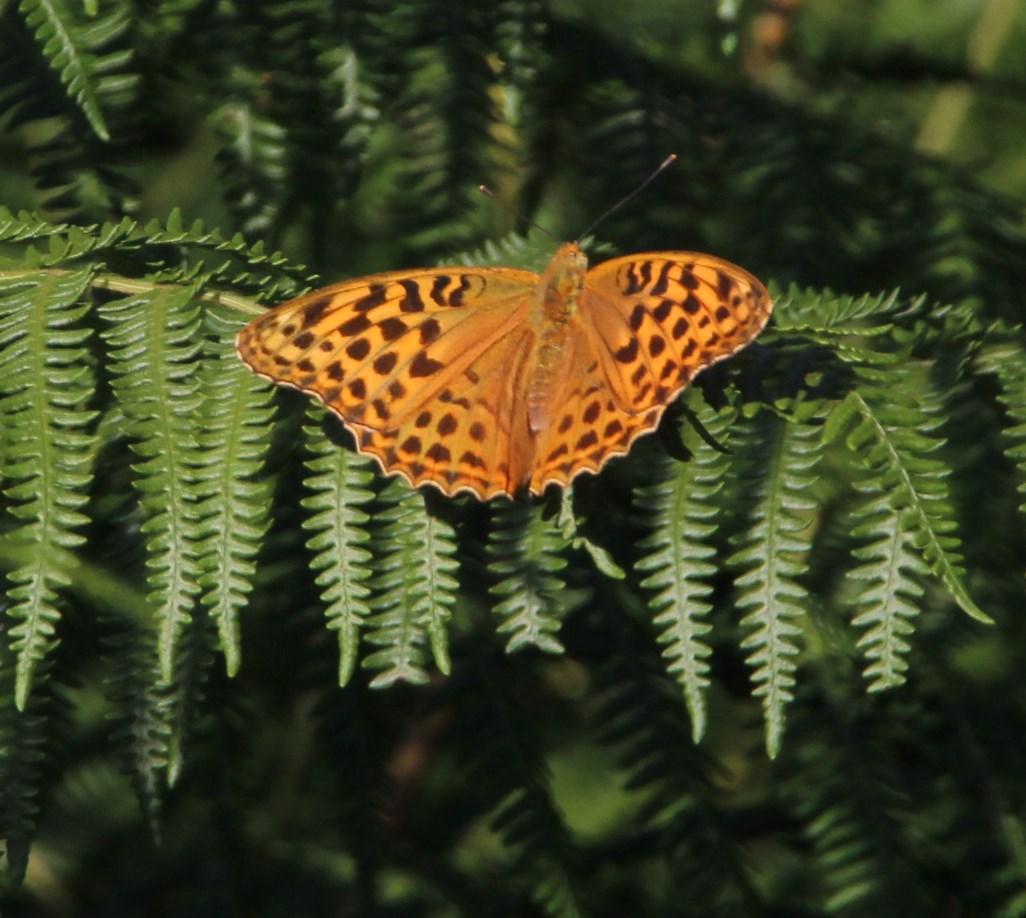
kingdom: Animalia
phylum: Arthropoda
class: Insecta
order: Lepidoptera
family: Nymphalidae
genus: Argynnis
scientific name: Argynnis paphia
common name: Silver-washed fritillary
